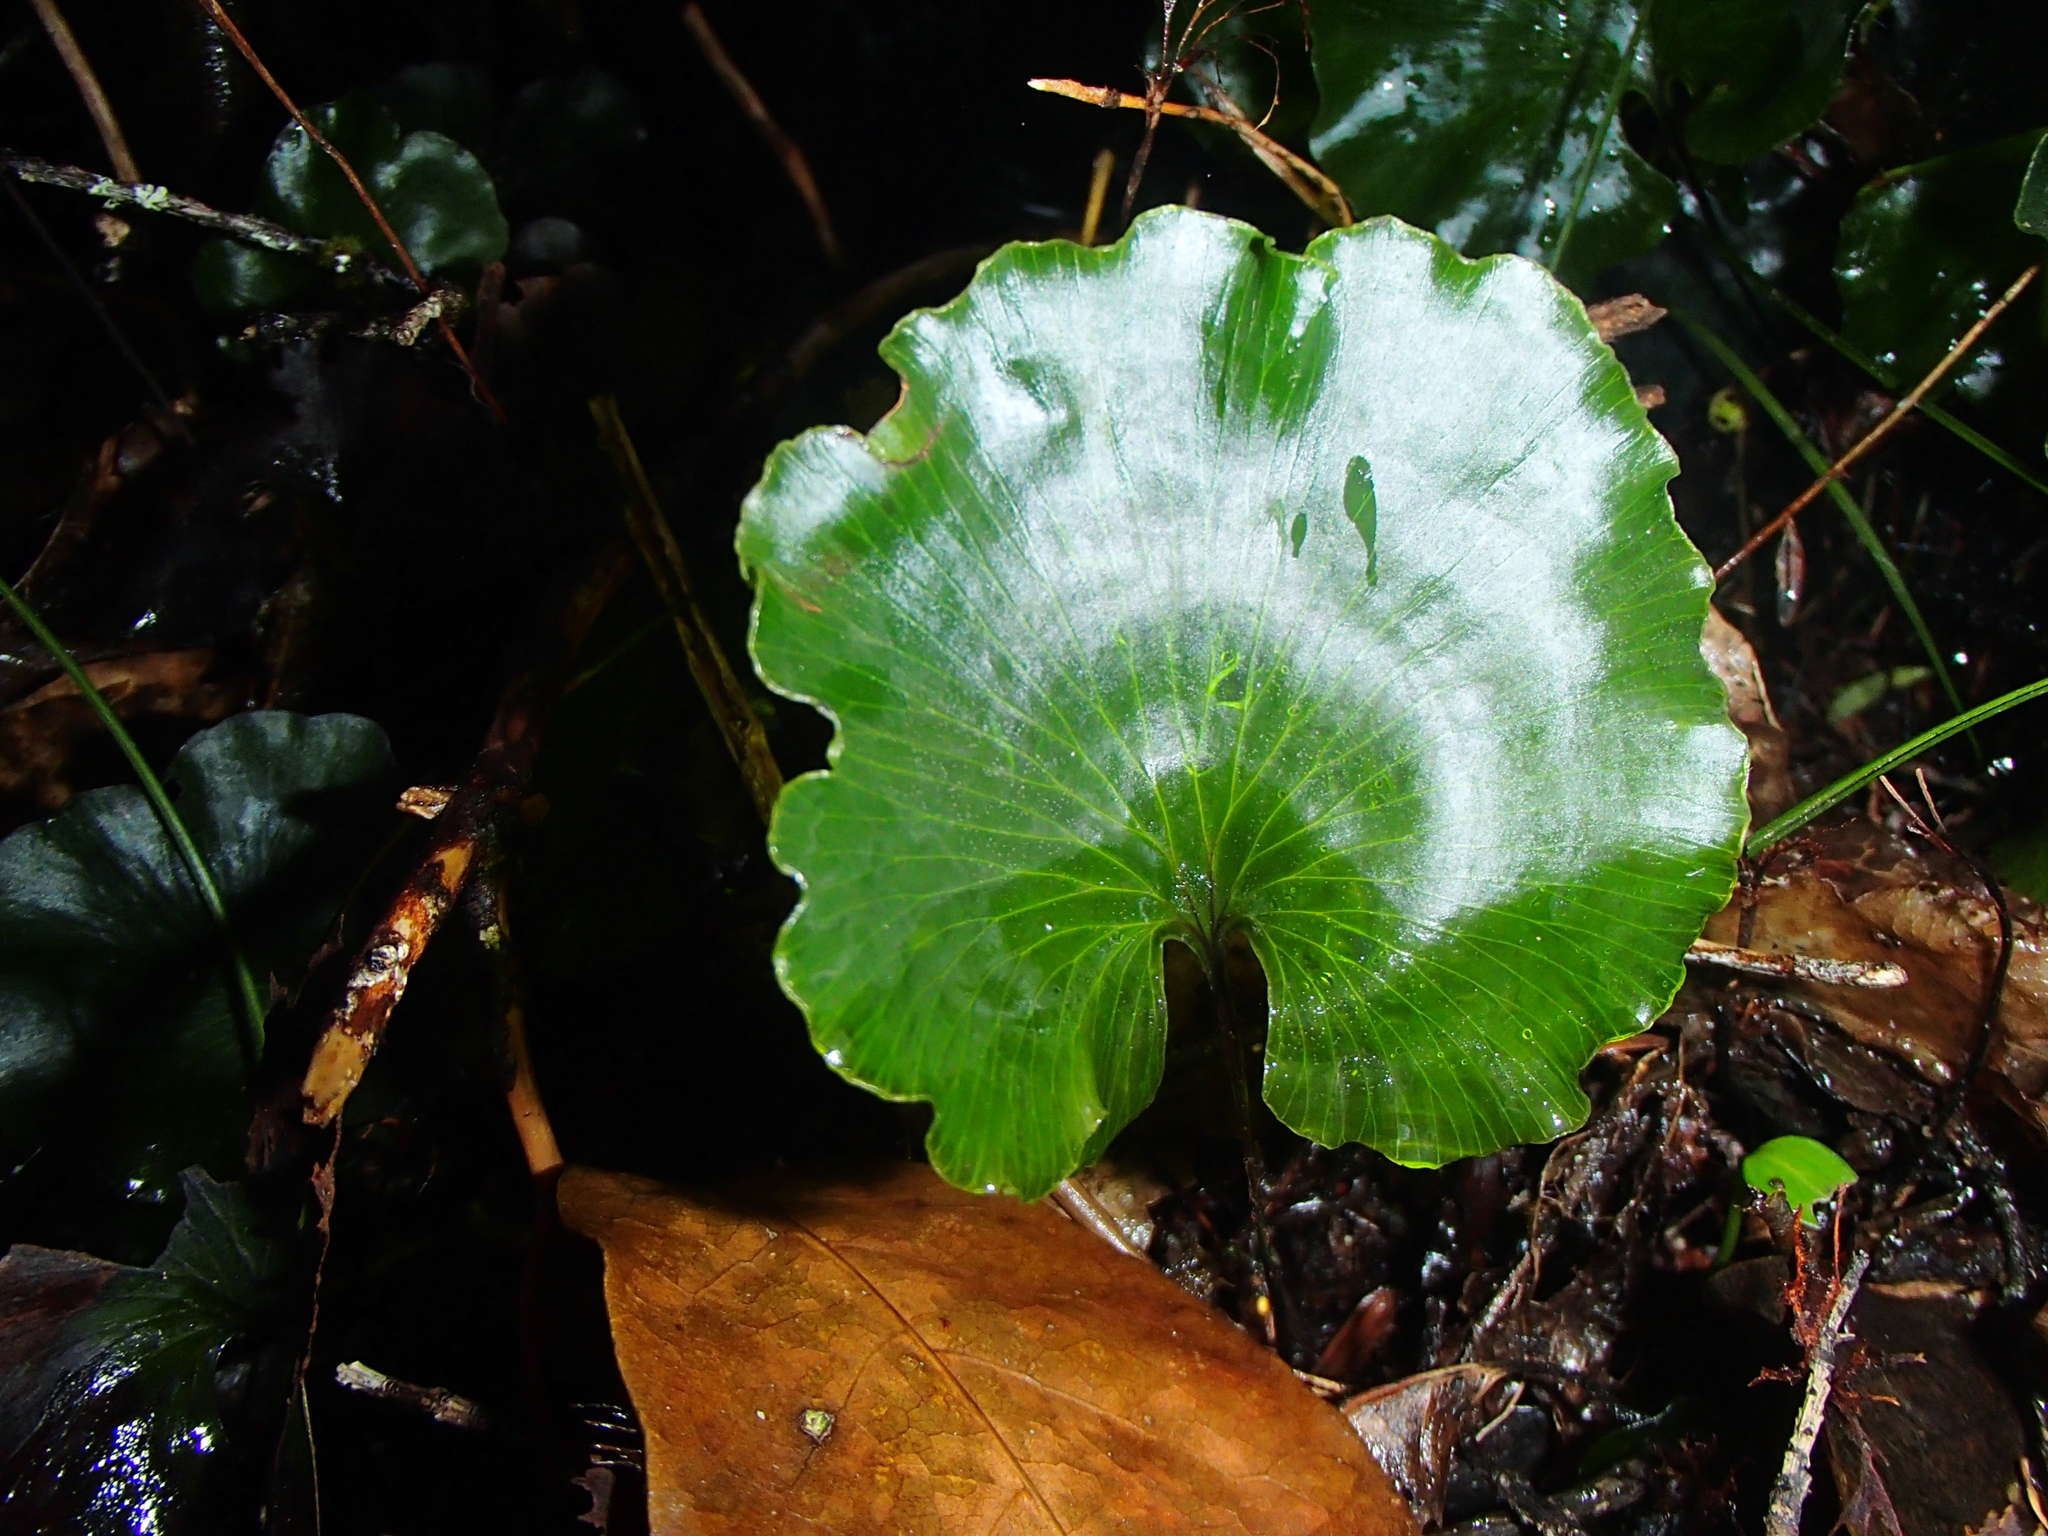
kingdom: Plantae
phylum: Tracheophyta
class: Polypodiopsida
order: Hymenophyllales
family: Hymenophyllaceae
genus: Hymenophyllum
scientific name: Hymenophyllum nephrophyllum
